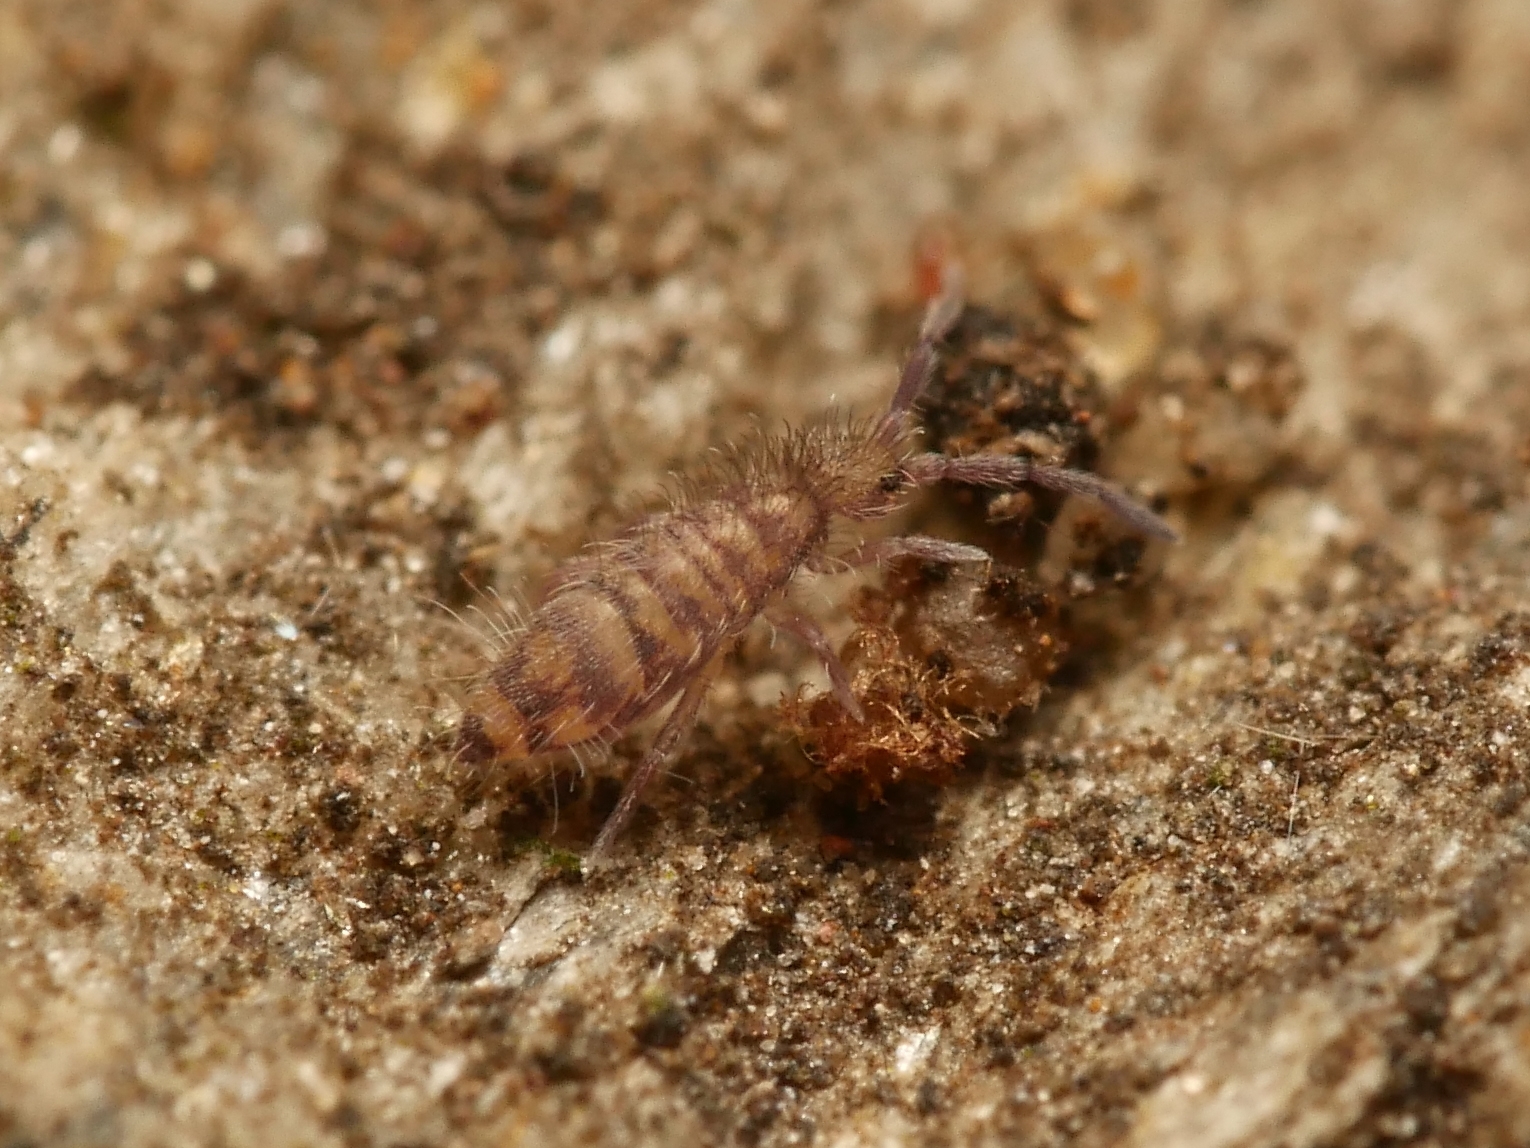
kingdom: Animalia
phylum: Arthropoda
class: Collembola
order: Entomobryomorpha
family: Entomobryidae
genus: Entomobrya
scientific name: Entomobrya multifasciata
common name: Springtail
